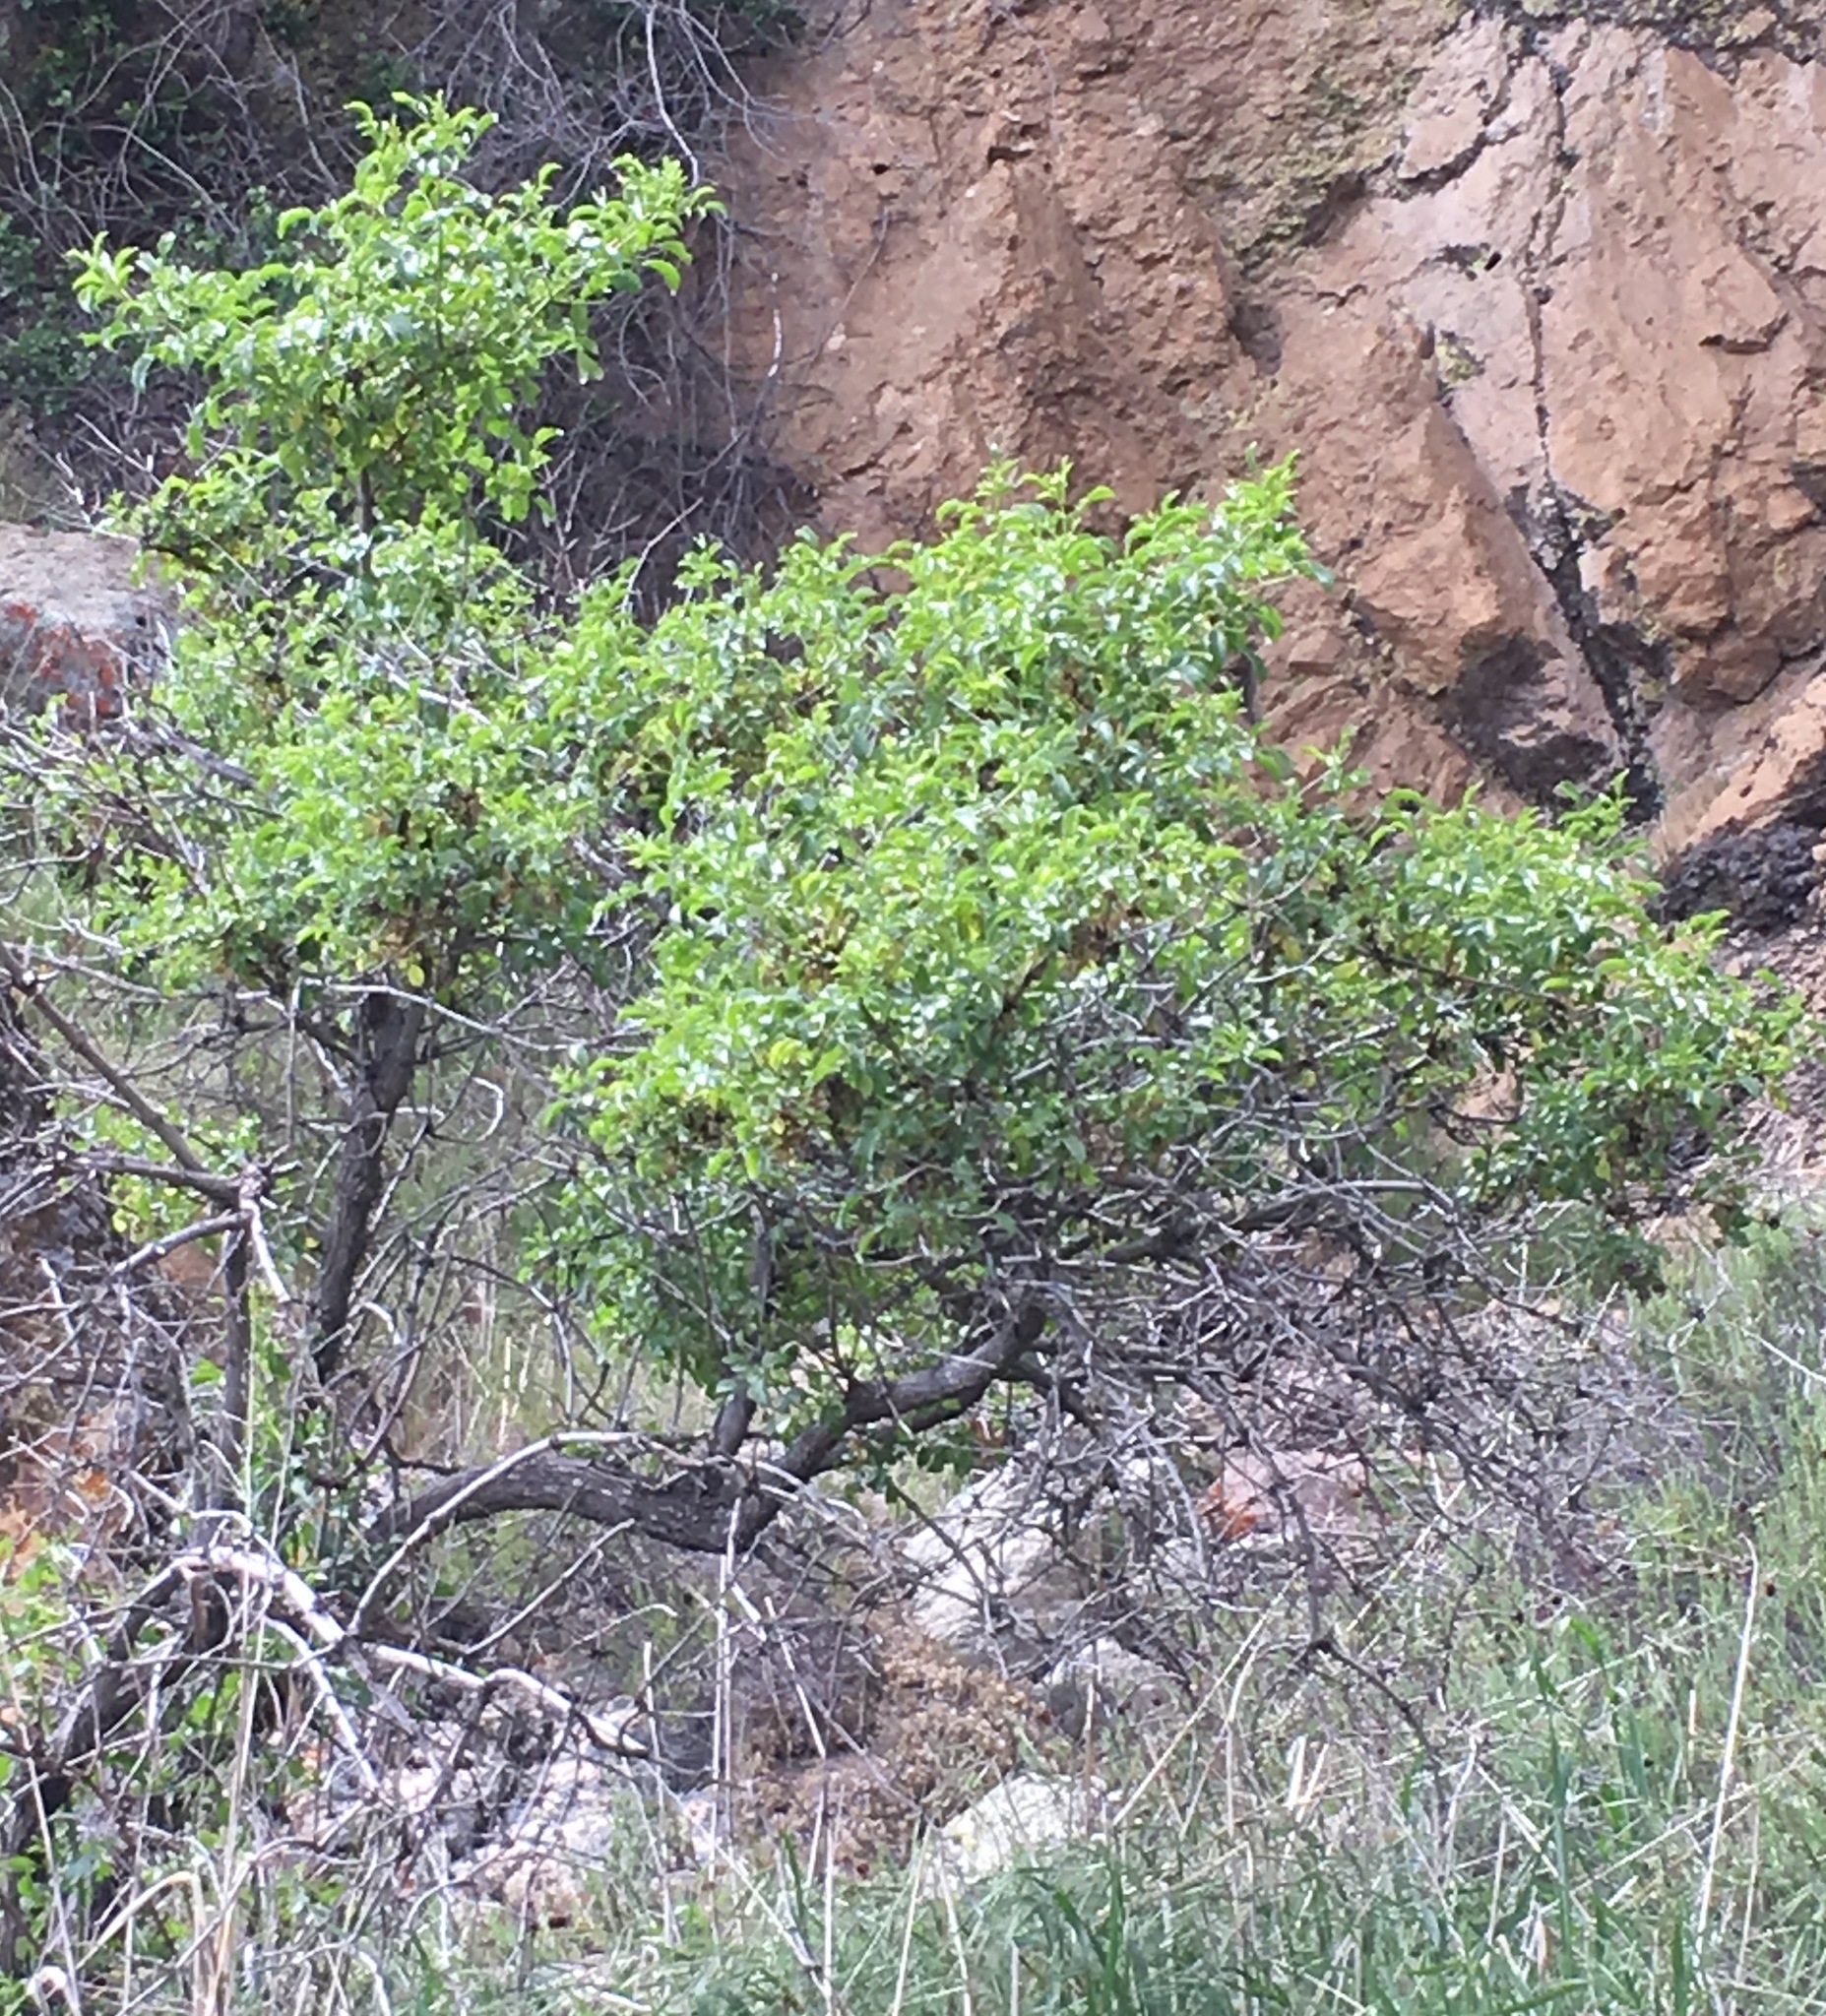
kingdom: Plantae
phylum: Tracheophyta
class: Magnoliopsida
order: Dipsacales
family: Viburnaceae
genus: Sambucus
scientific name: Sambucus cerulea
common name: Blue elder
